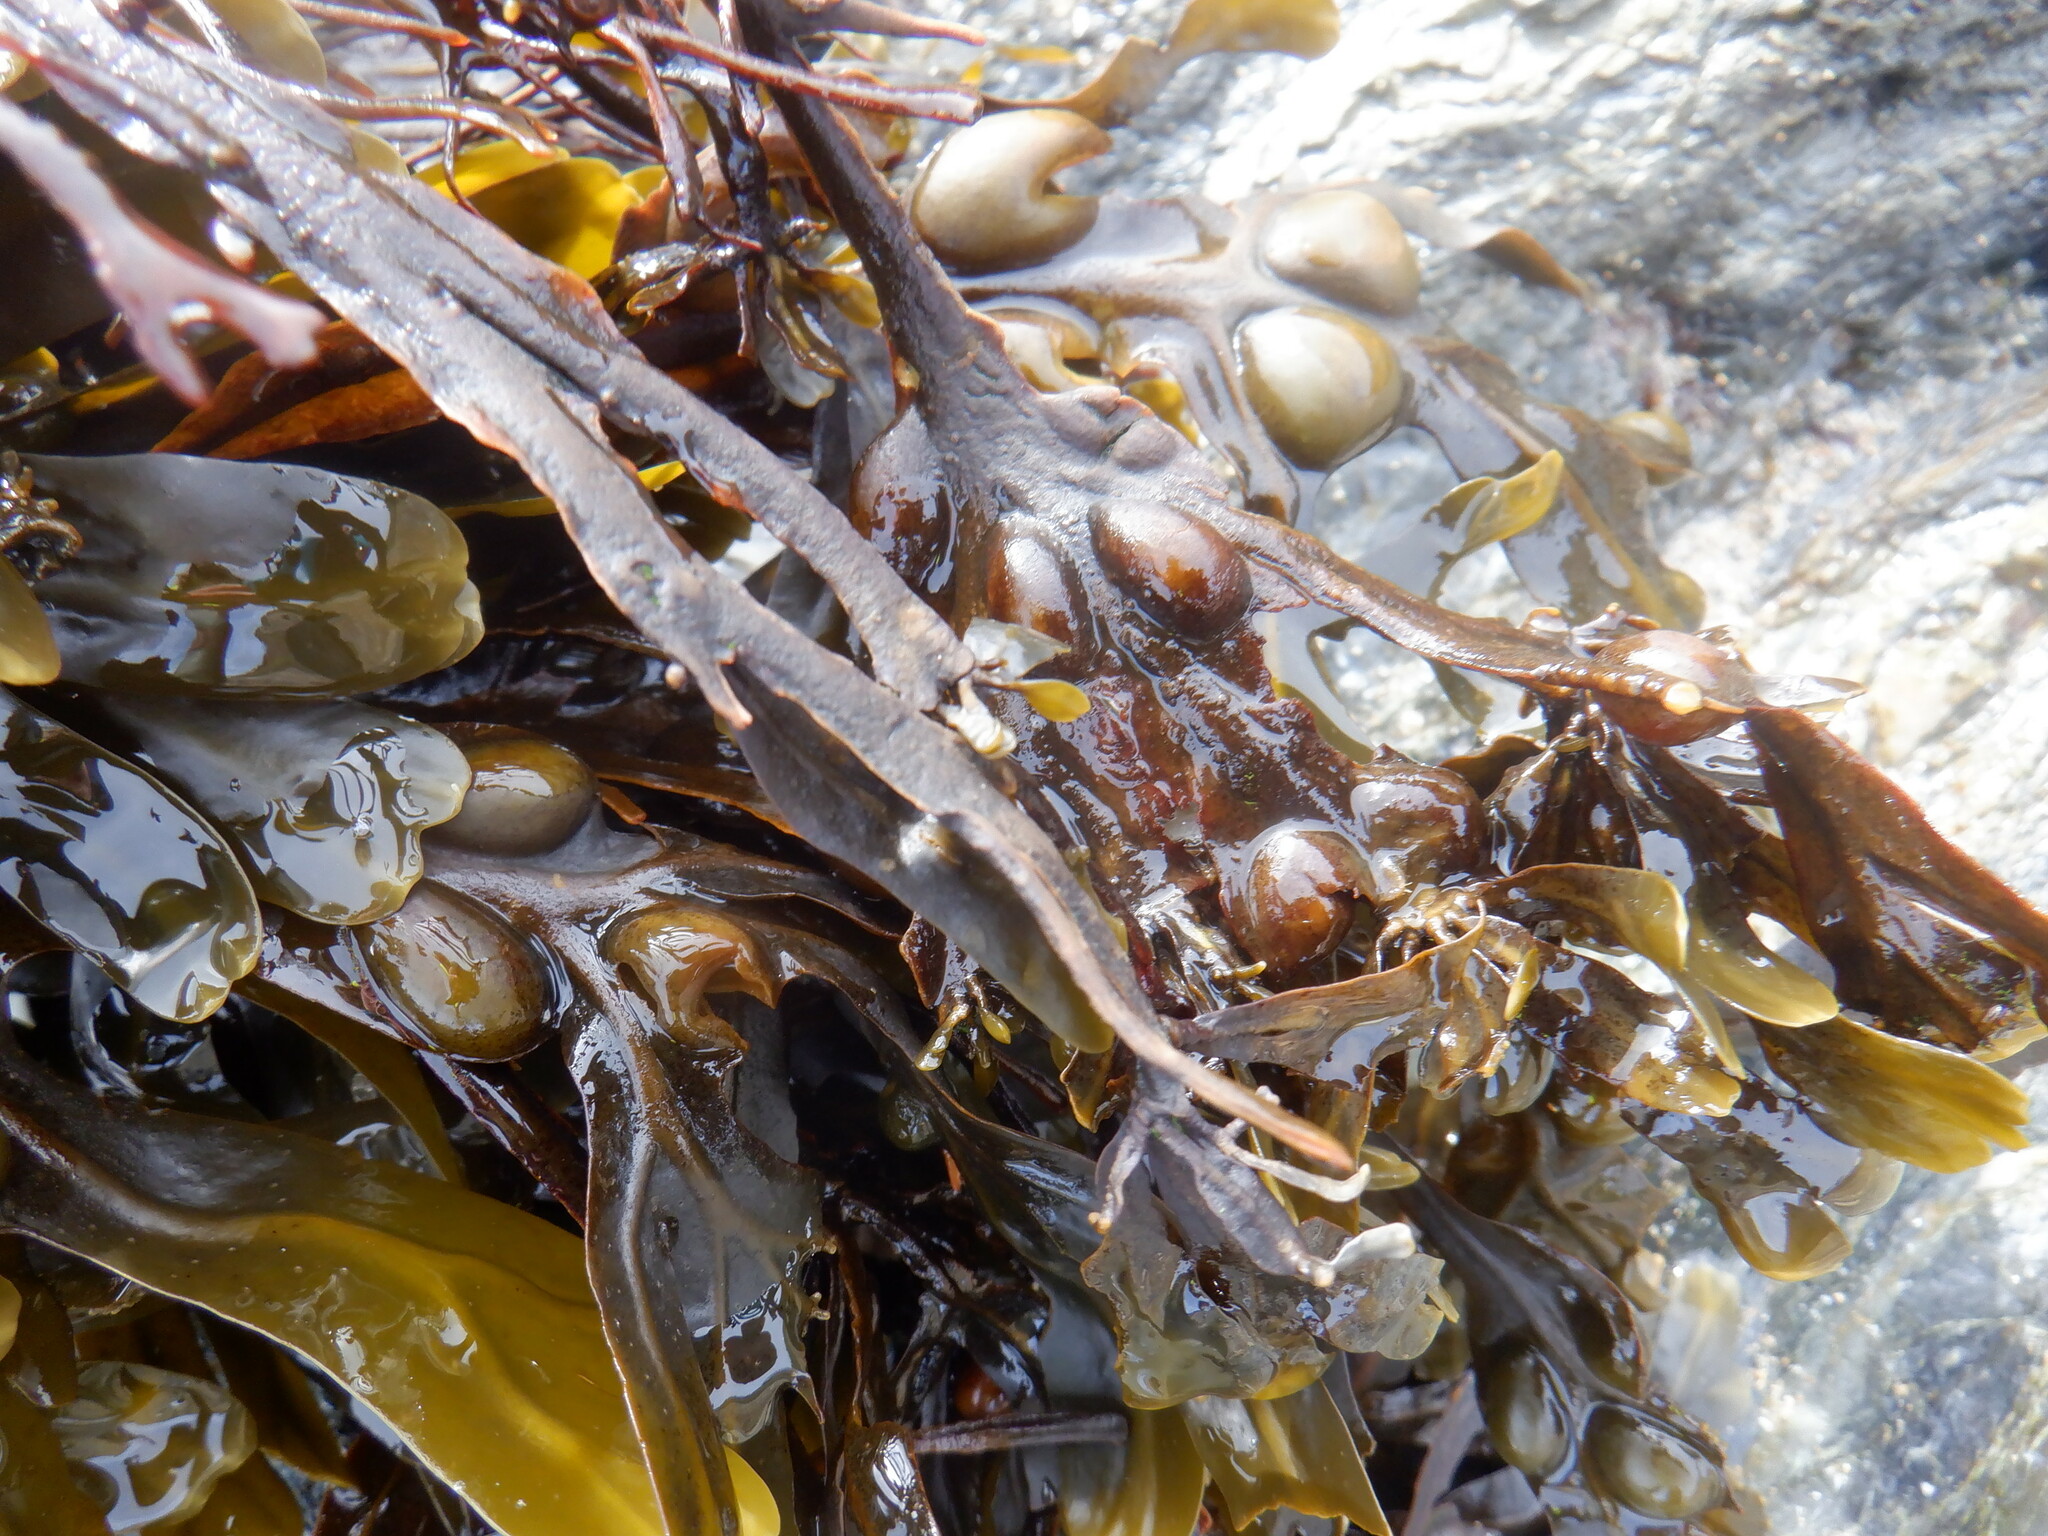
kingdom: Chromista
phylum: Ochrophyta
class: Phaeophyceae
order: Fucales
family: Fucaceae
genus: Fucus
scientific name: Fucus vesiculosus
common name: Bladder wrack
